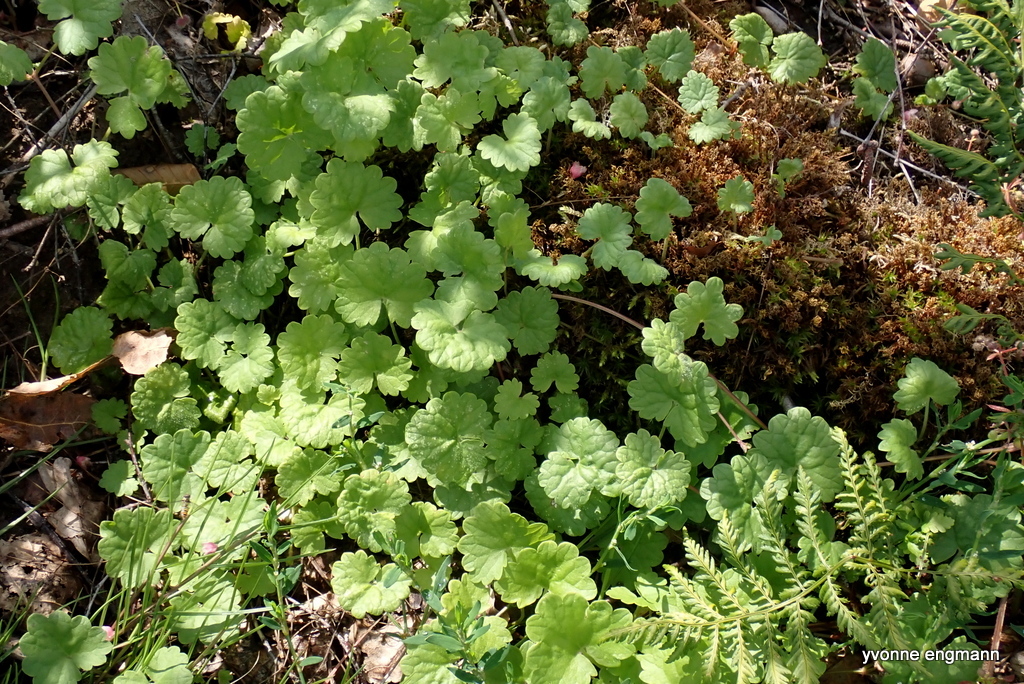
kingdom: Plantae
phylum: Tracheophyta
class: Magnoliopsida
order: Lamiales
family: Lamiaceae
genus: Glechoma
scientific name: Glechoma hederacea
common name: Ground ivy
